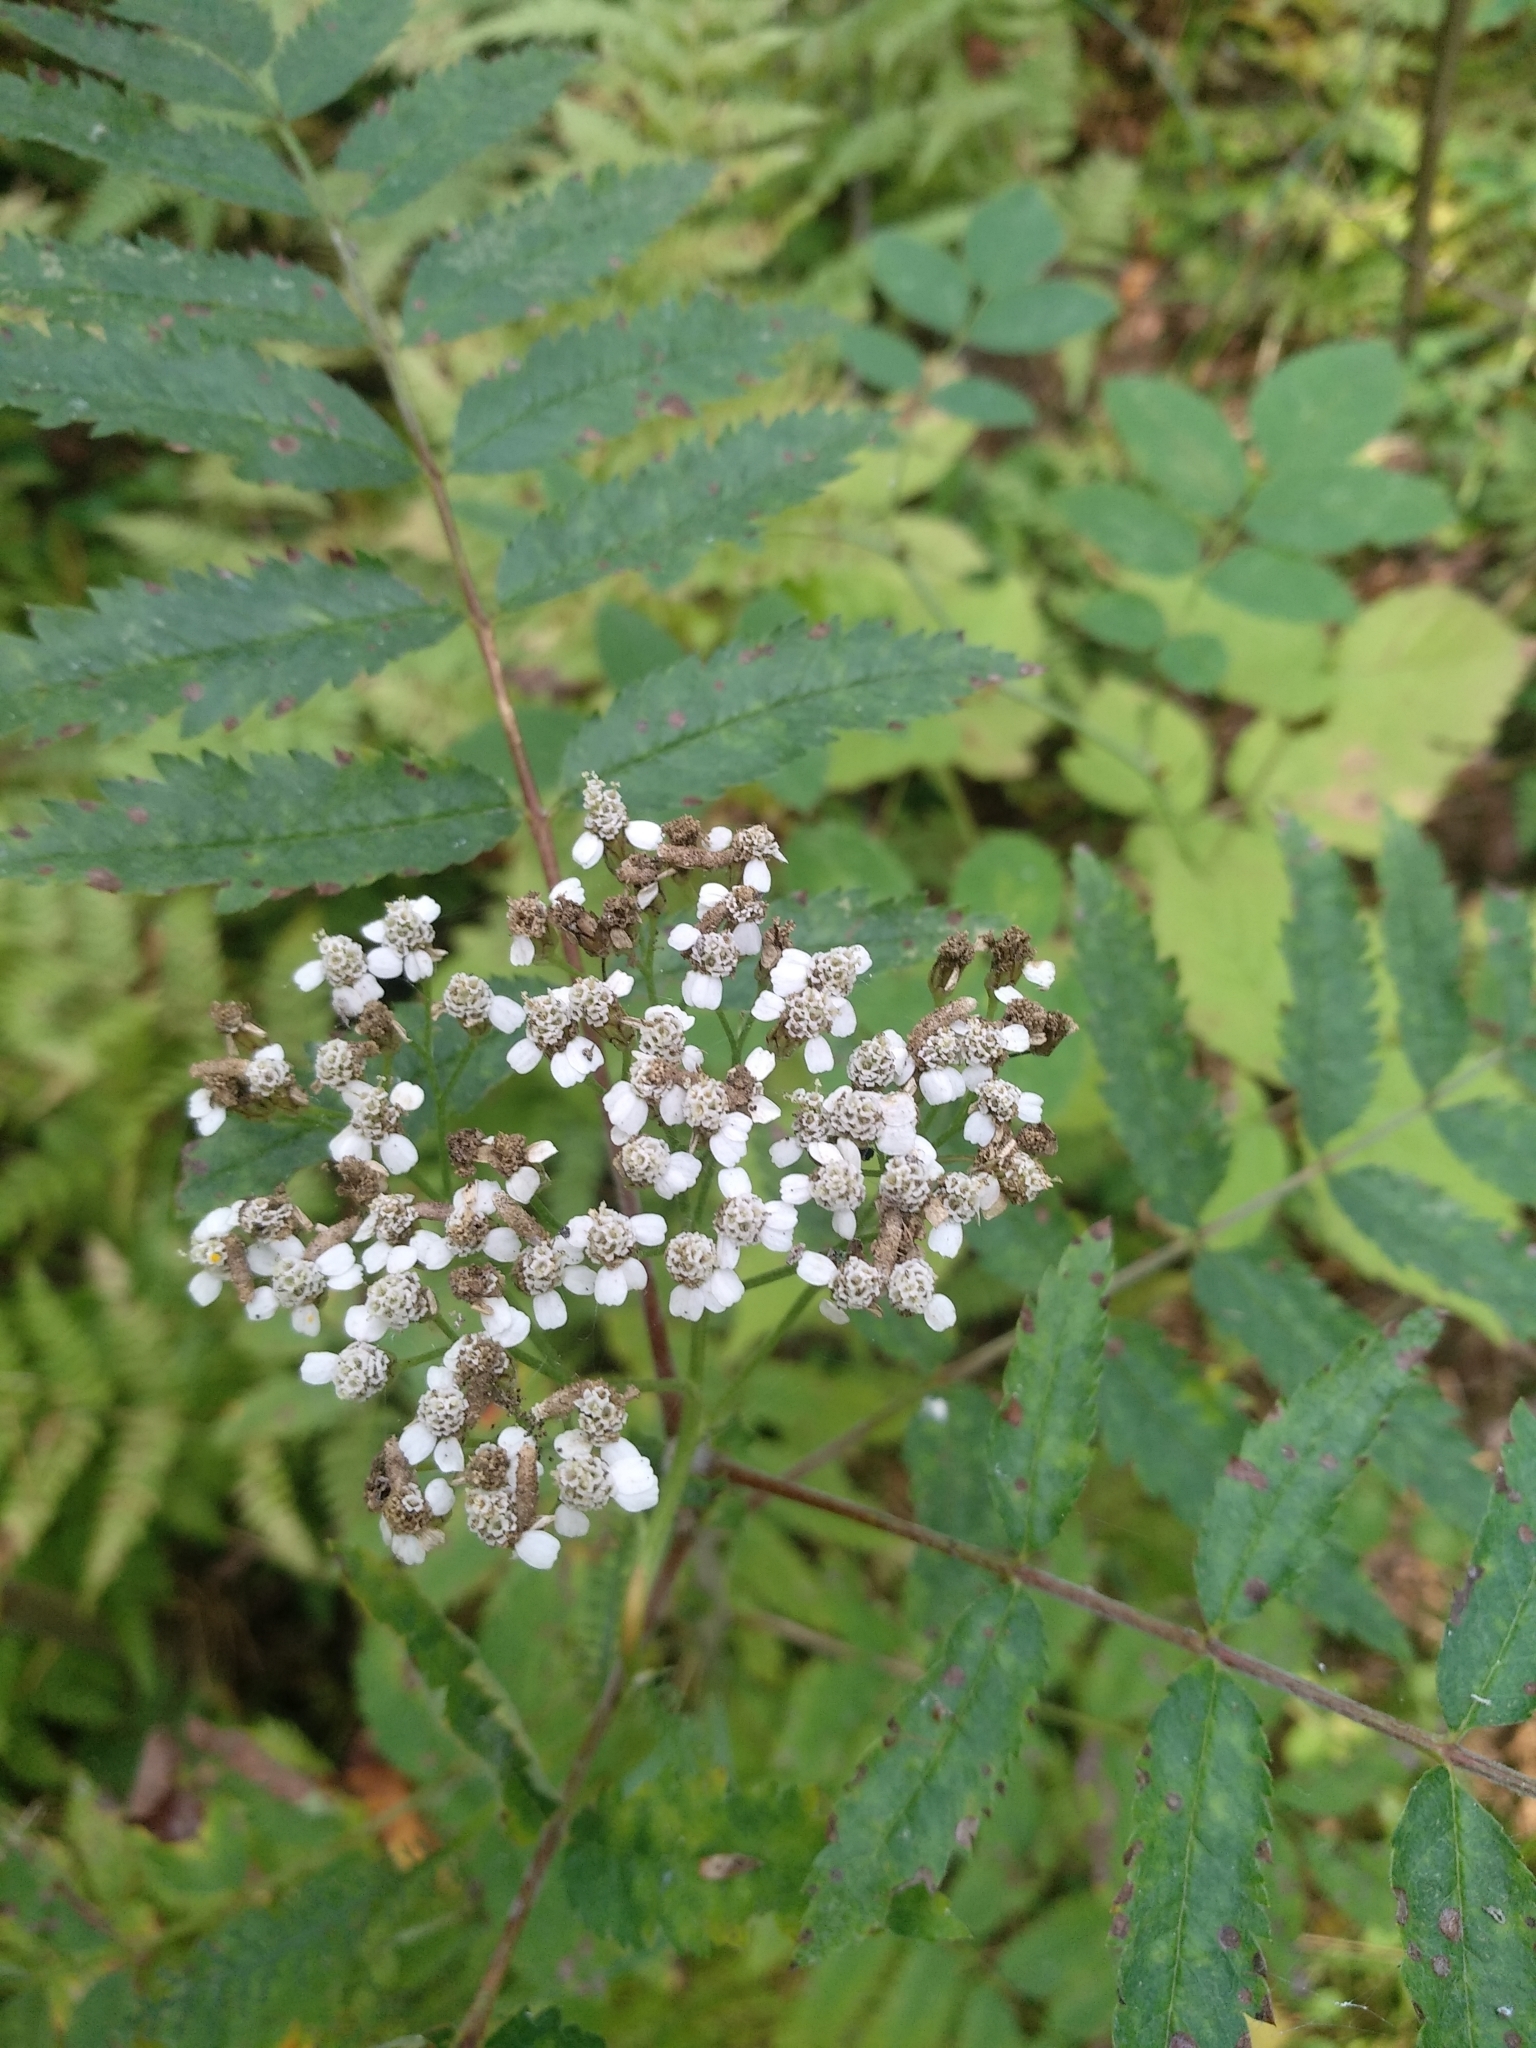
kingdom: Plantae
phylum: Tracheophyta
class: Magnoliopsida
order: Asterales
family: Asteraceae
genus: Achillea
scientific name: Achillea millefolium
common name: Yarrow
